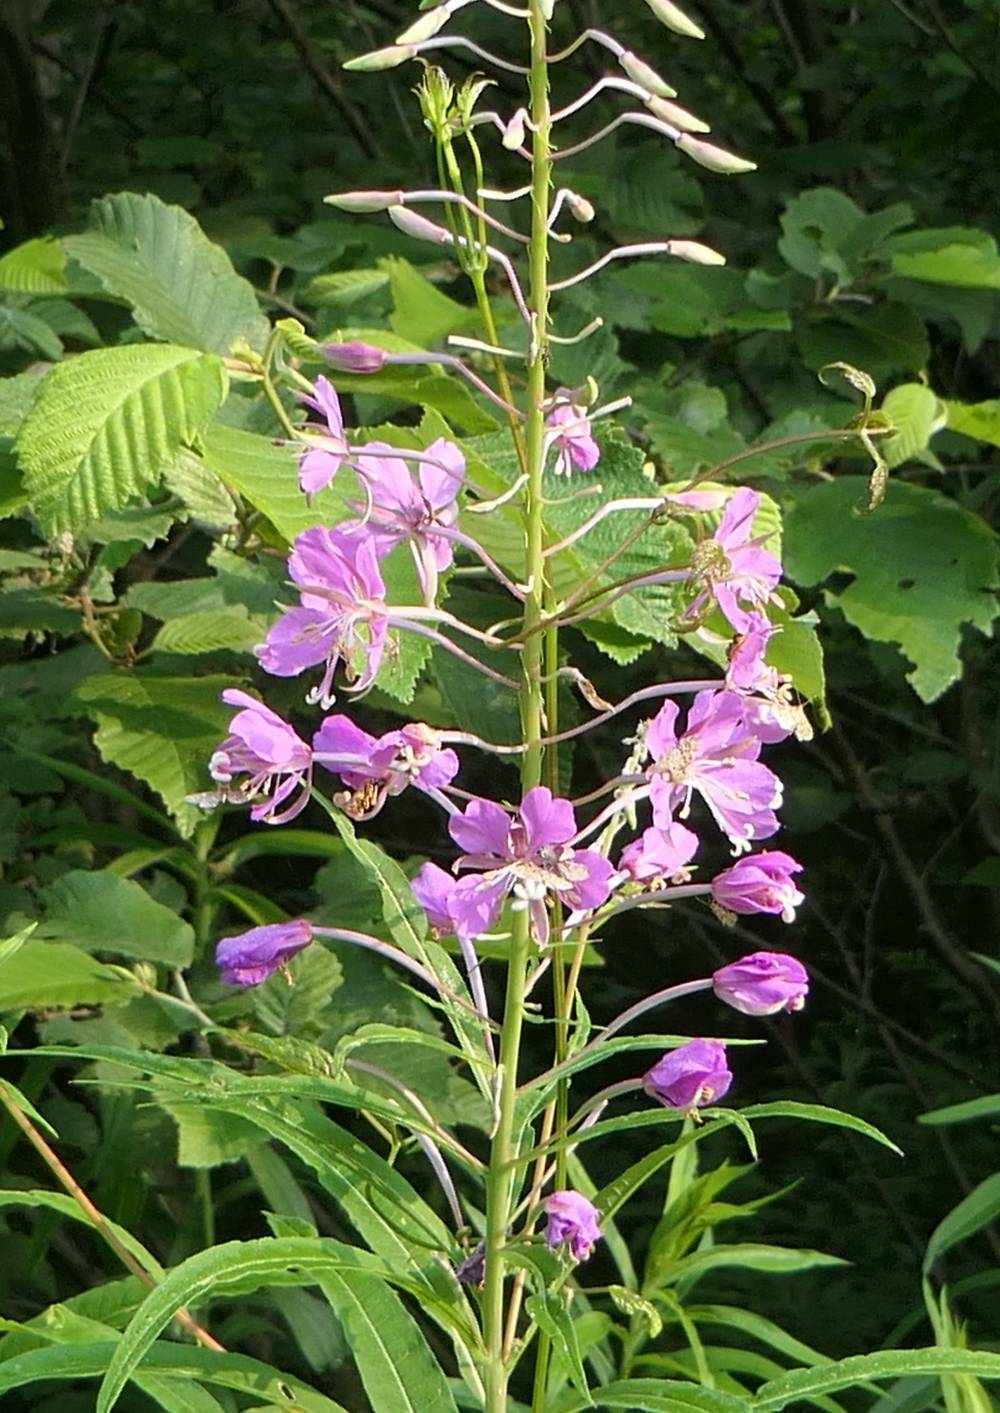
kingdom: Plantae
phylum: Tracheophyta
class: Magnoliopsida
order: Myrtales
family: Onagraceae
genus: Chamaenerion
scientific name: Chamaenerion angustifolium
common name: Fireweed
